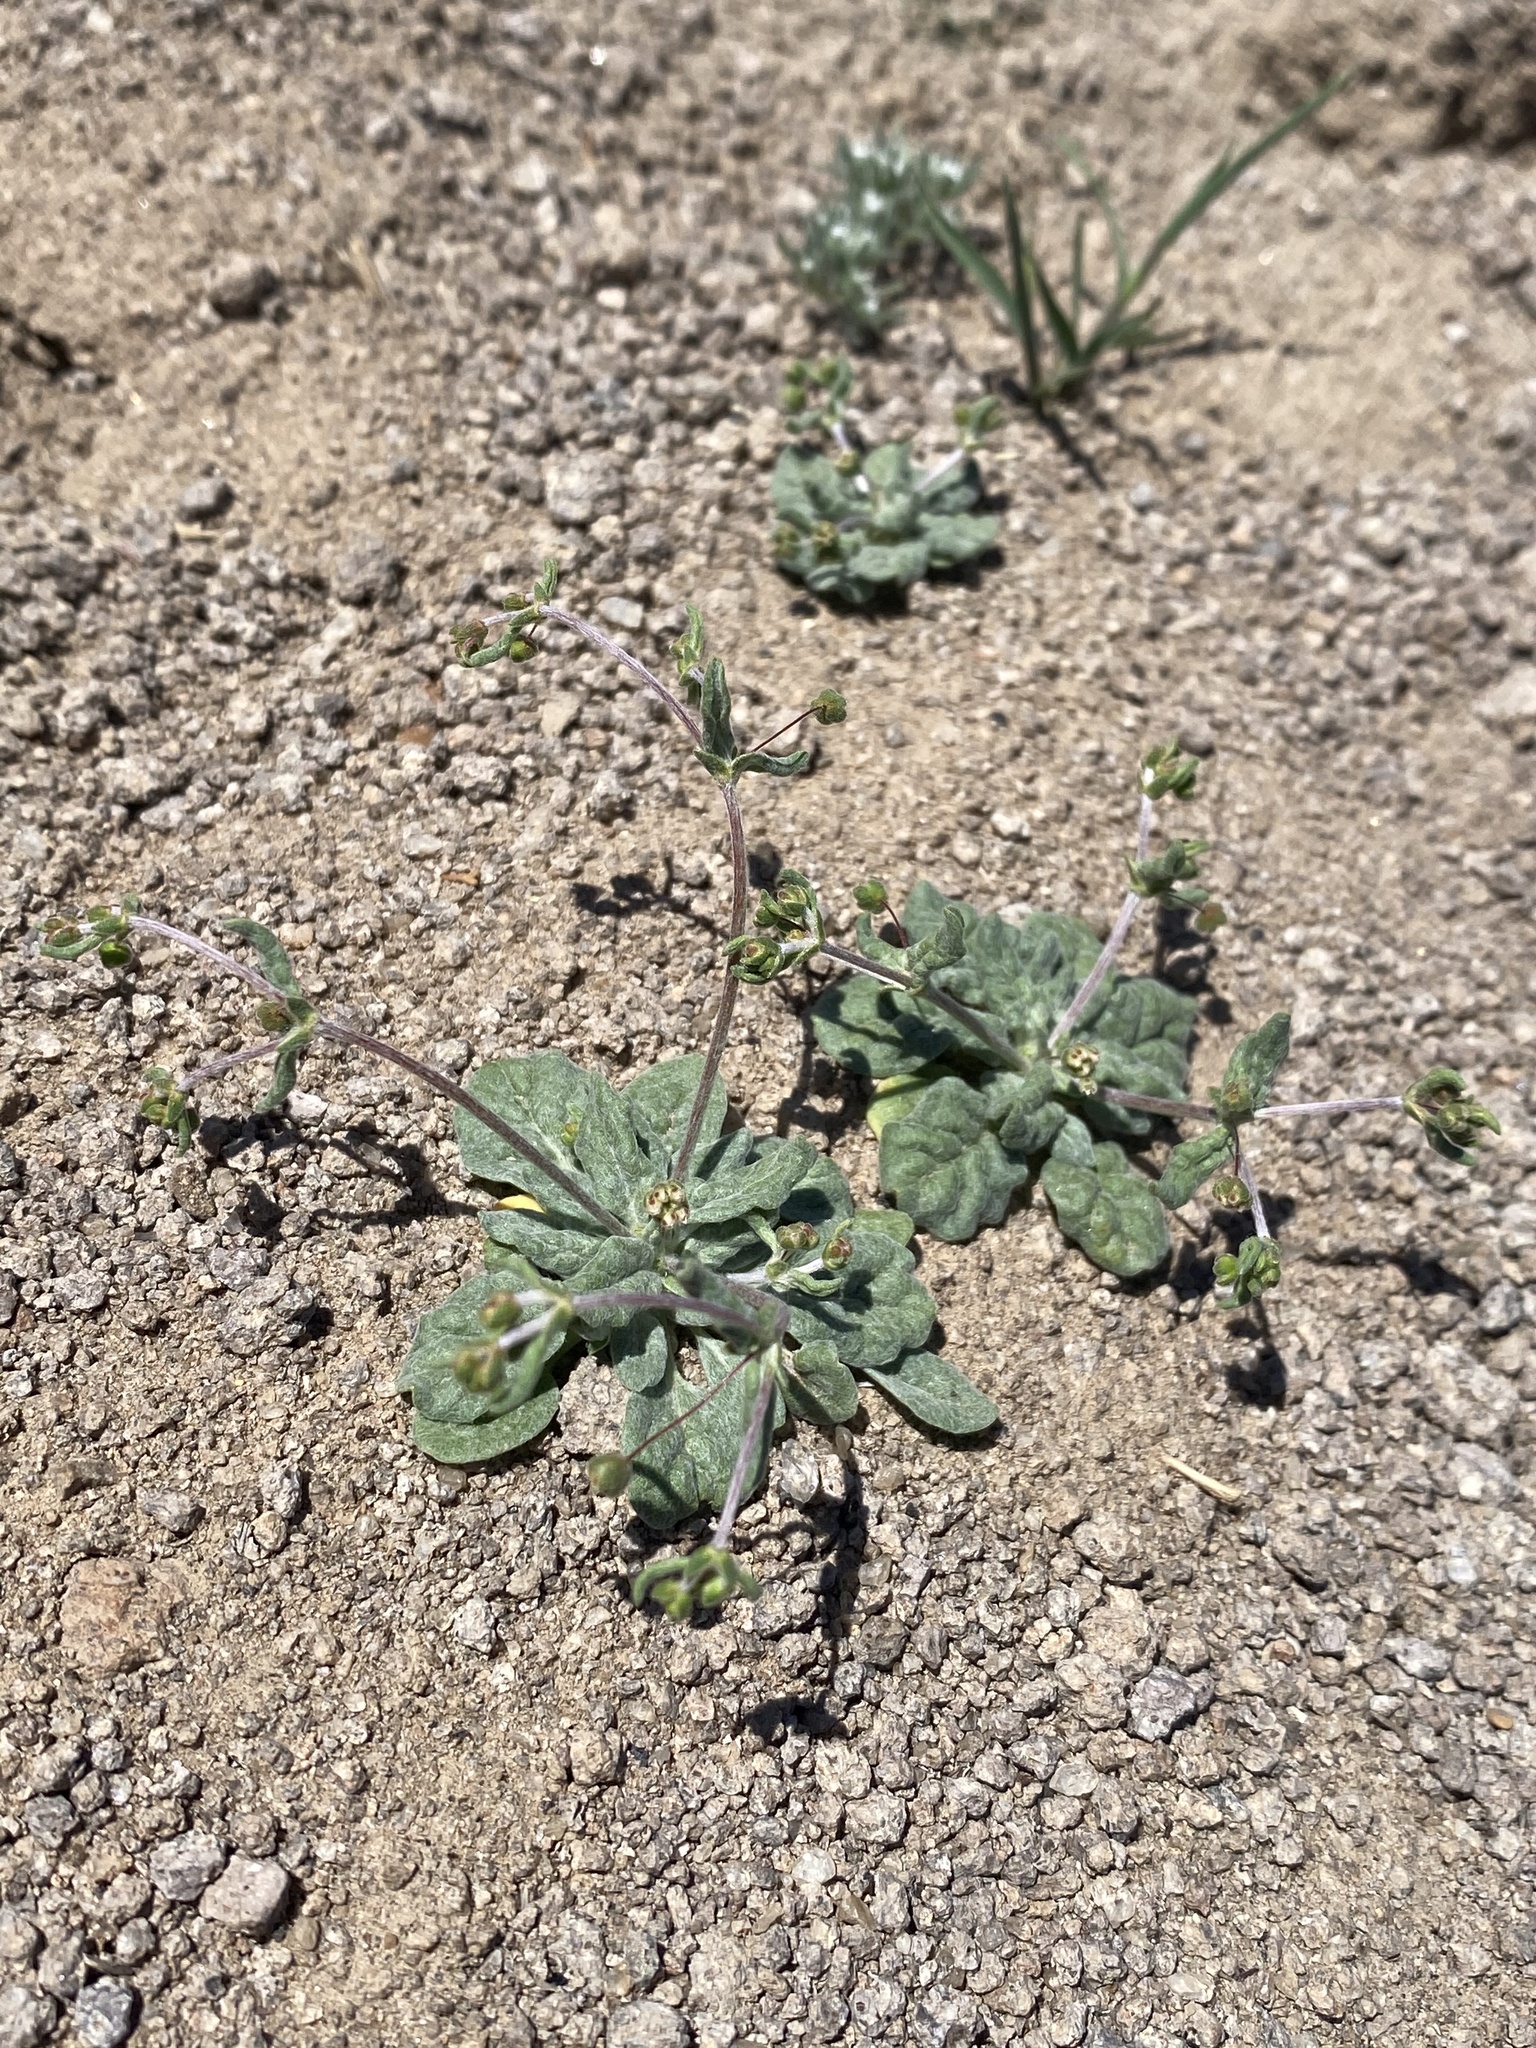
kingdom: Plantae
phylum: Tracheophyta
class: Magnoliopsida
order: Caryophyllales
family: Polygonaceae
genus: Eriogonum
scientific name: Eriogonum maculatum
